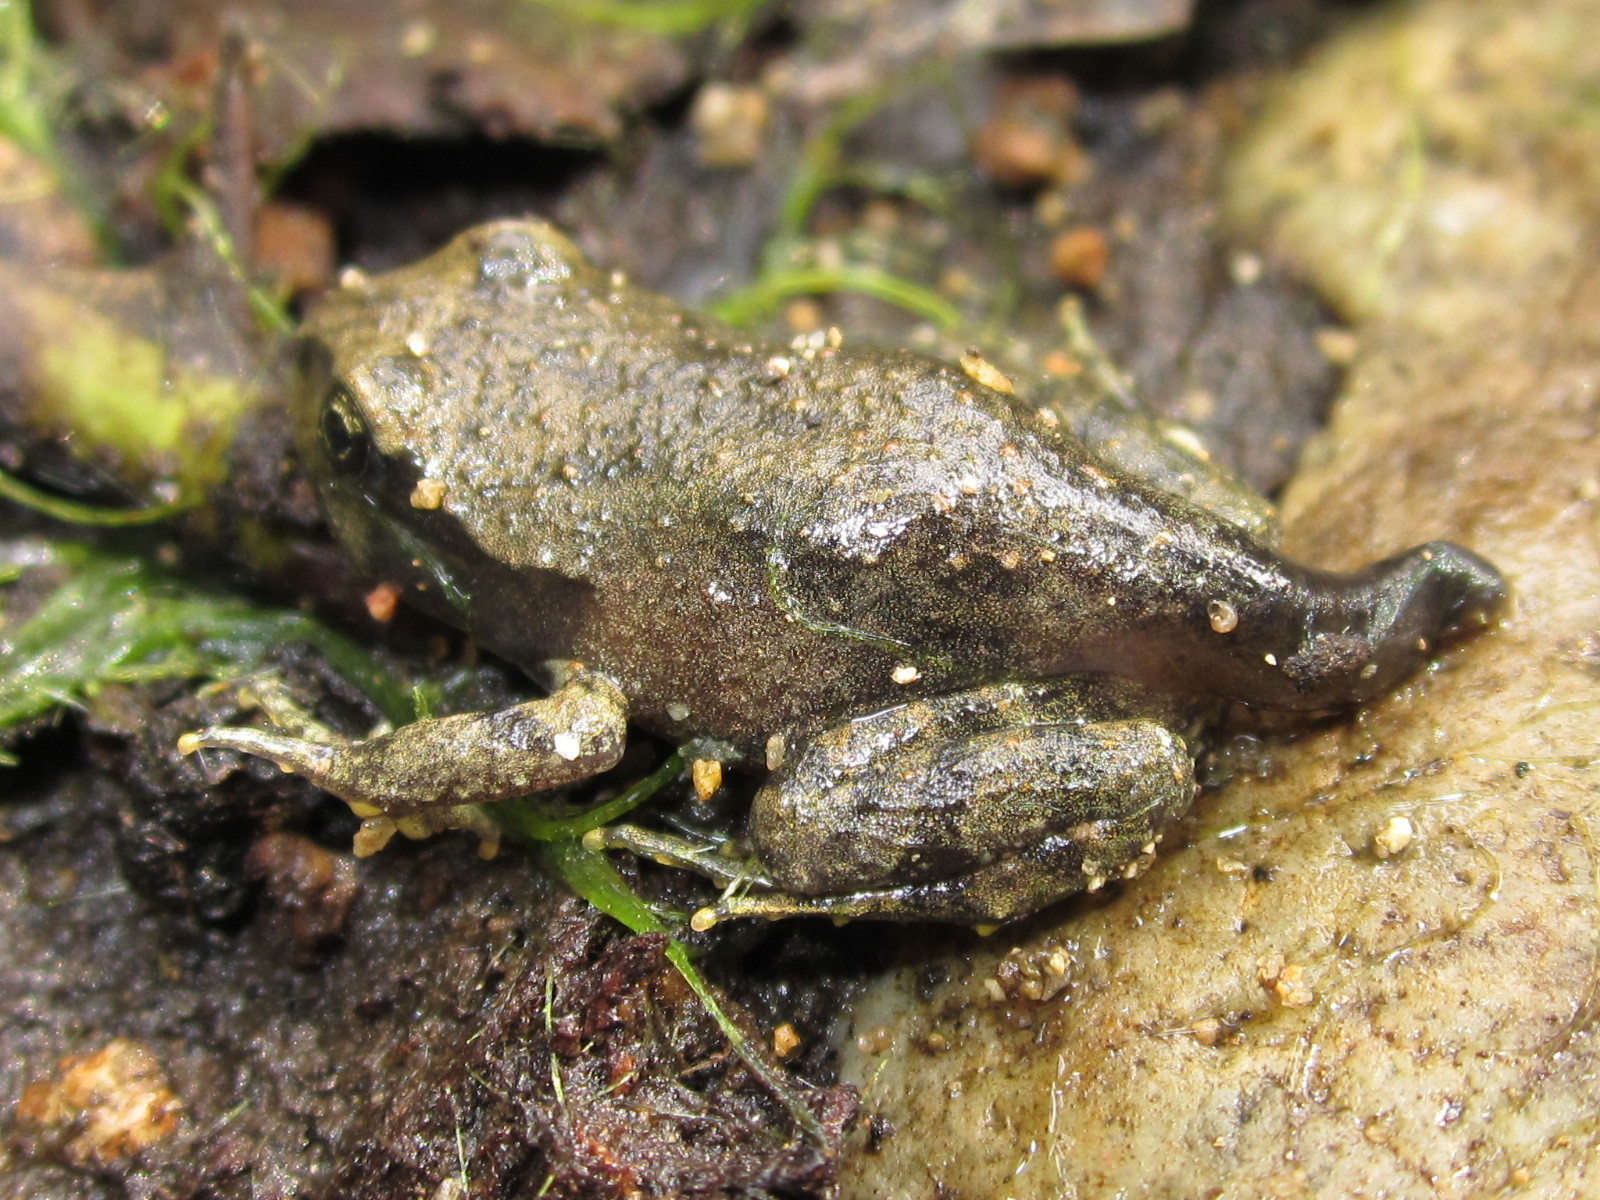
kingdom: Animalia
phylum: Chordata
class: Amphibia
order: Anura
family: Alsodidae
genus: Alsodes
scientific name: Alsodes nodosus
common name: Black spiny-chest frog
